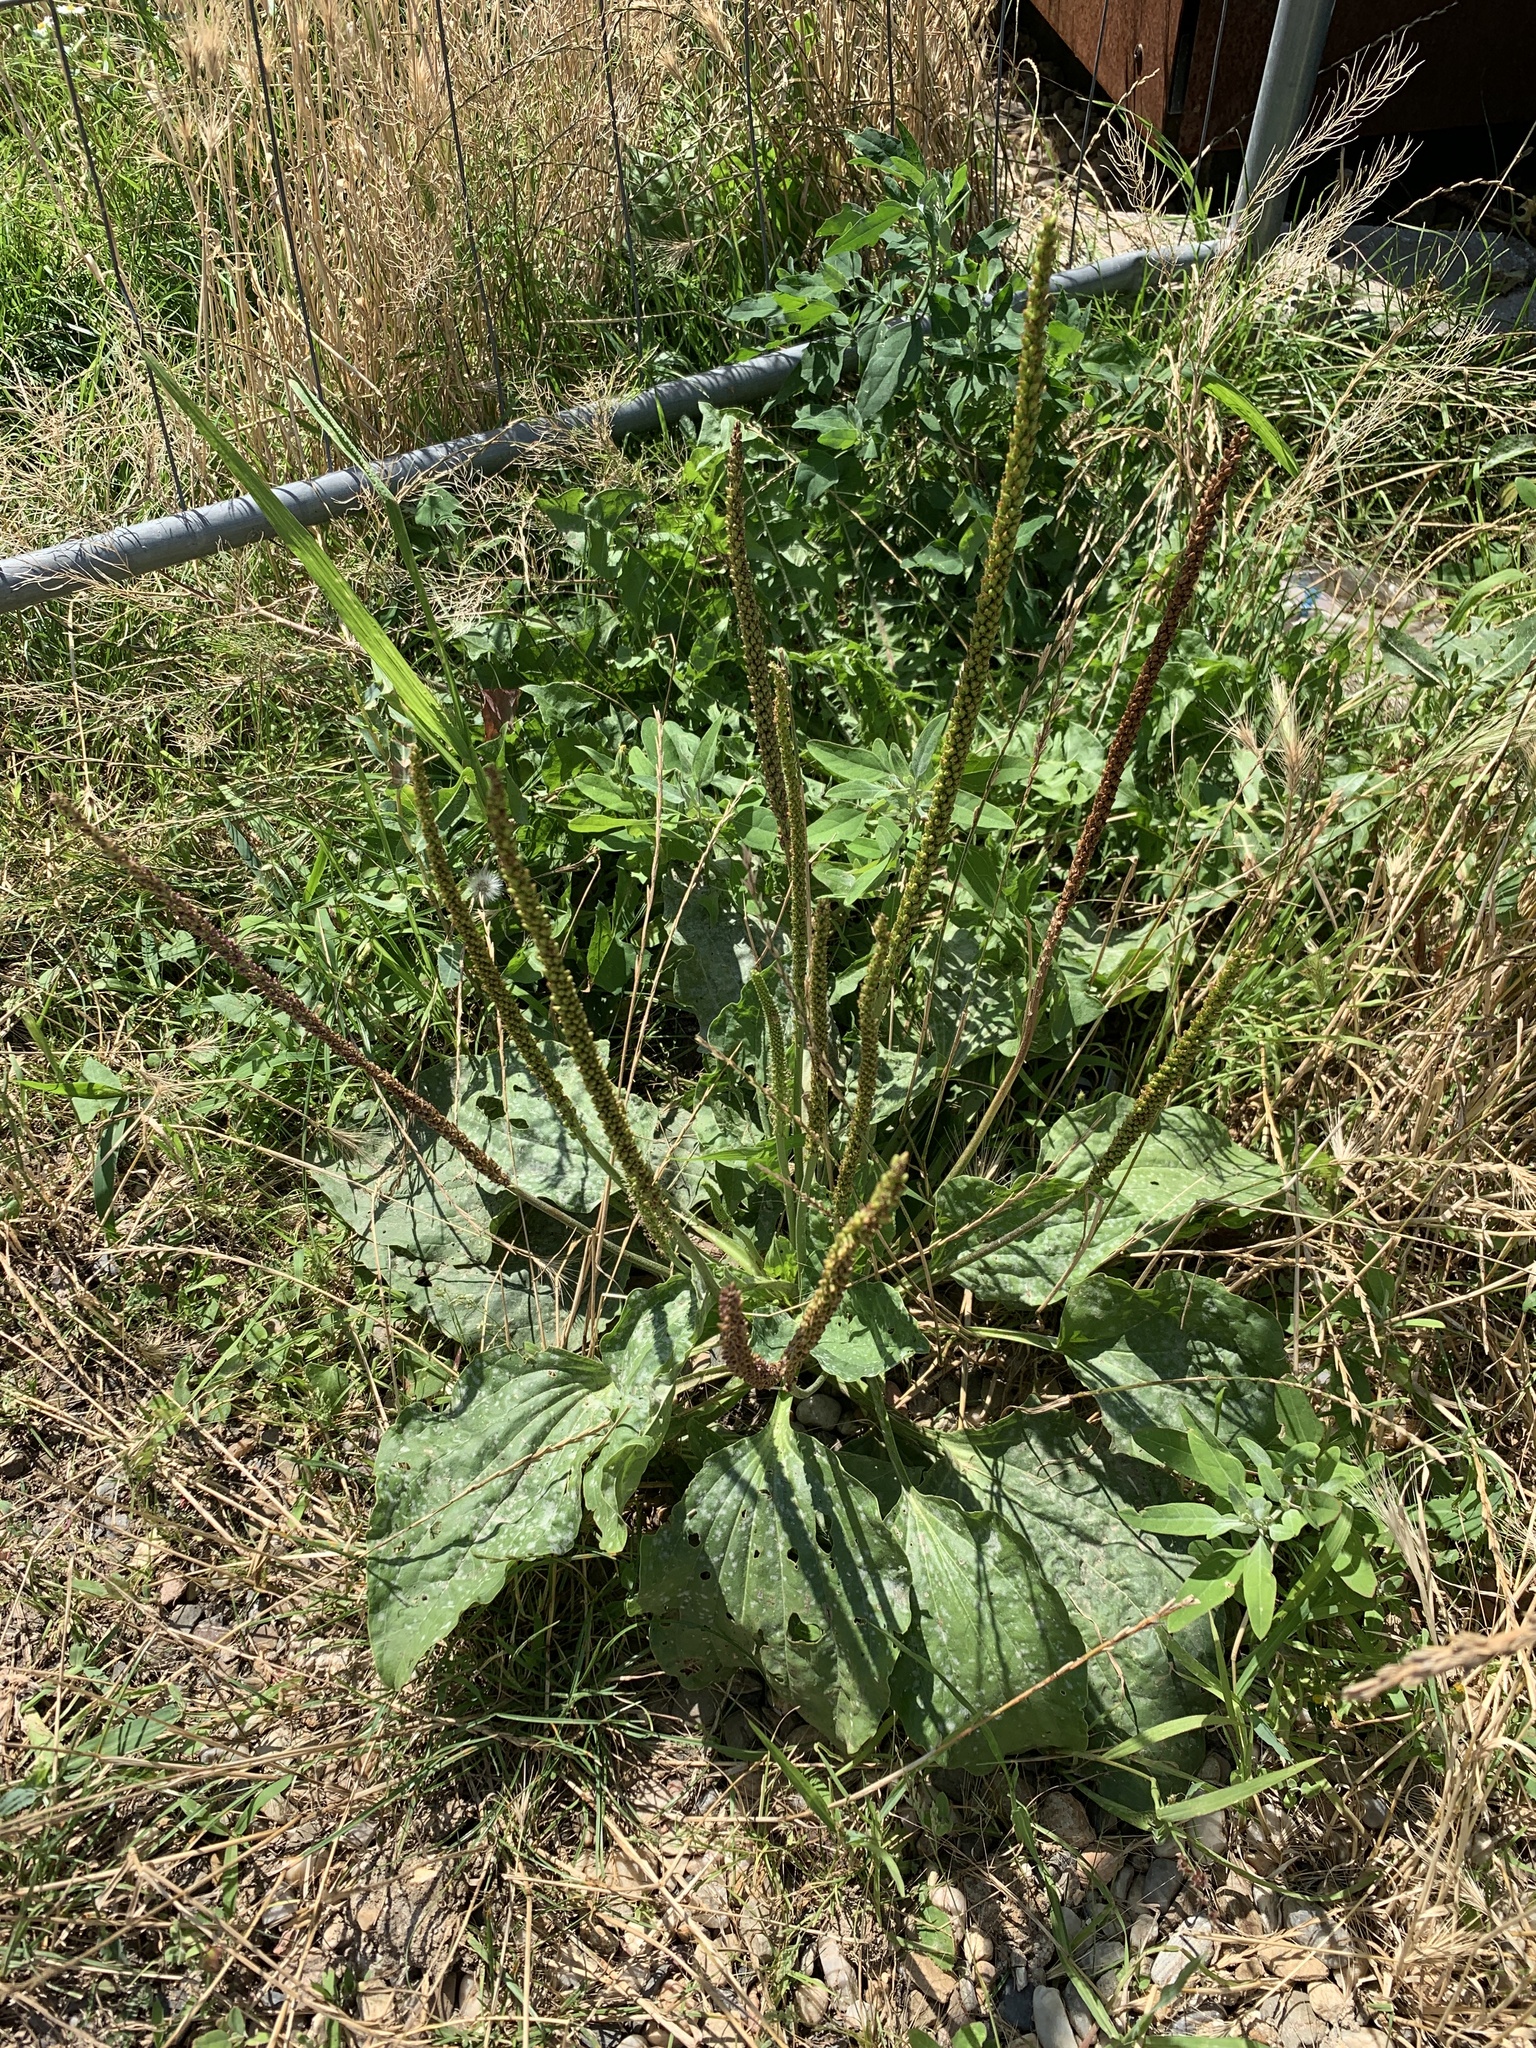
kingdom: Plantae
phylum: Tracheophyta
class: Magnoliopsida
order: Lamiales
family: Plantaginaceae
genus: Plantago
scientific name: Plantago major
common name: Common plantain
